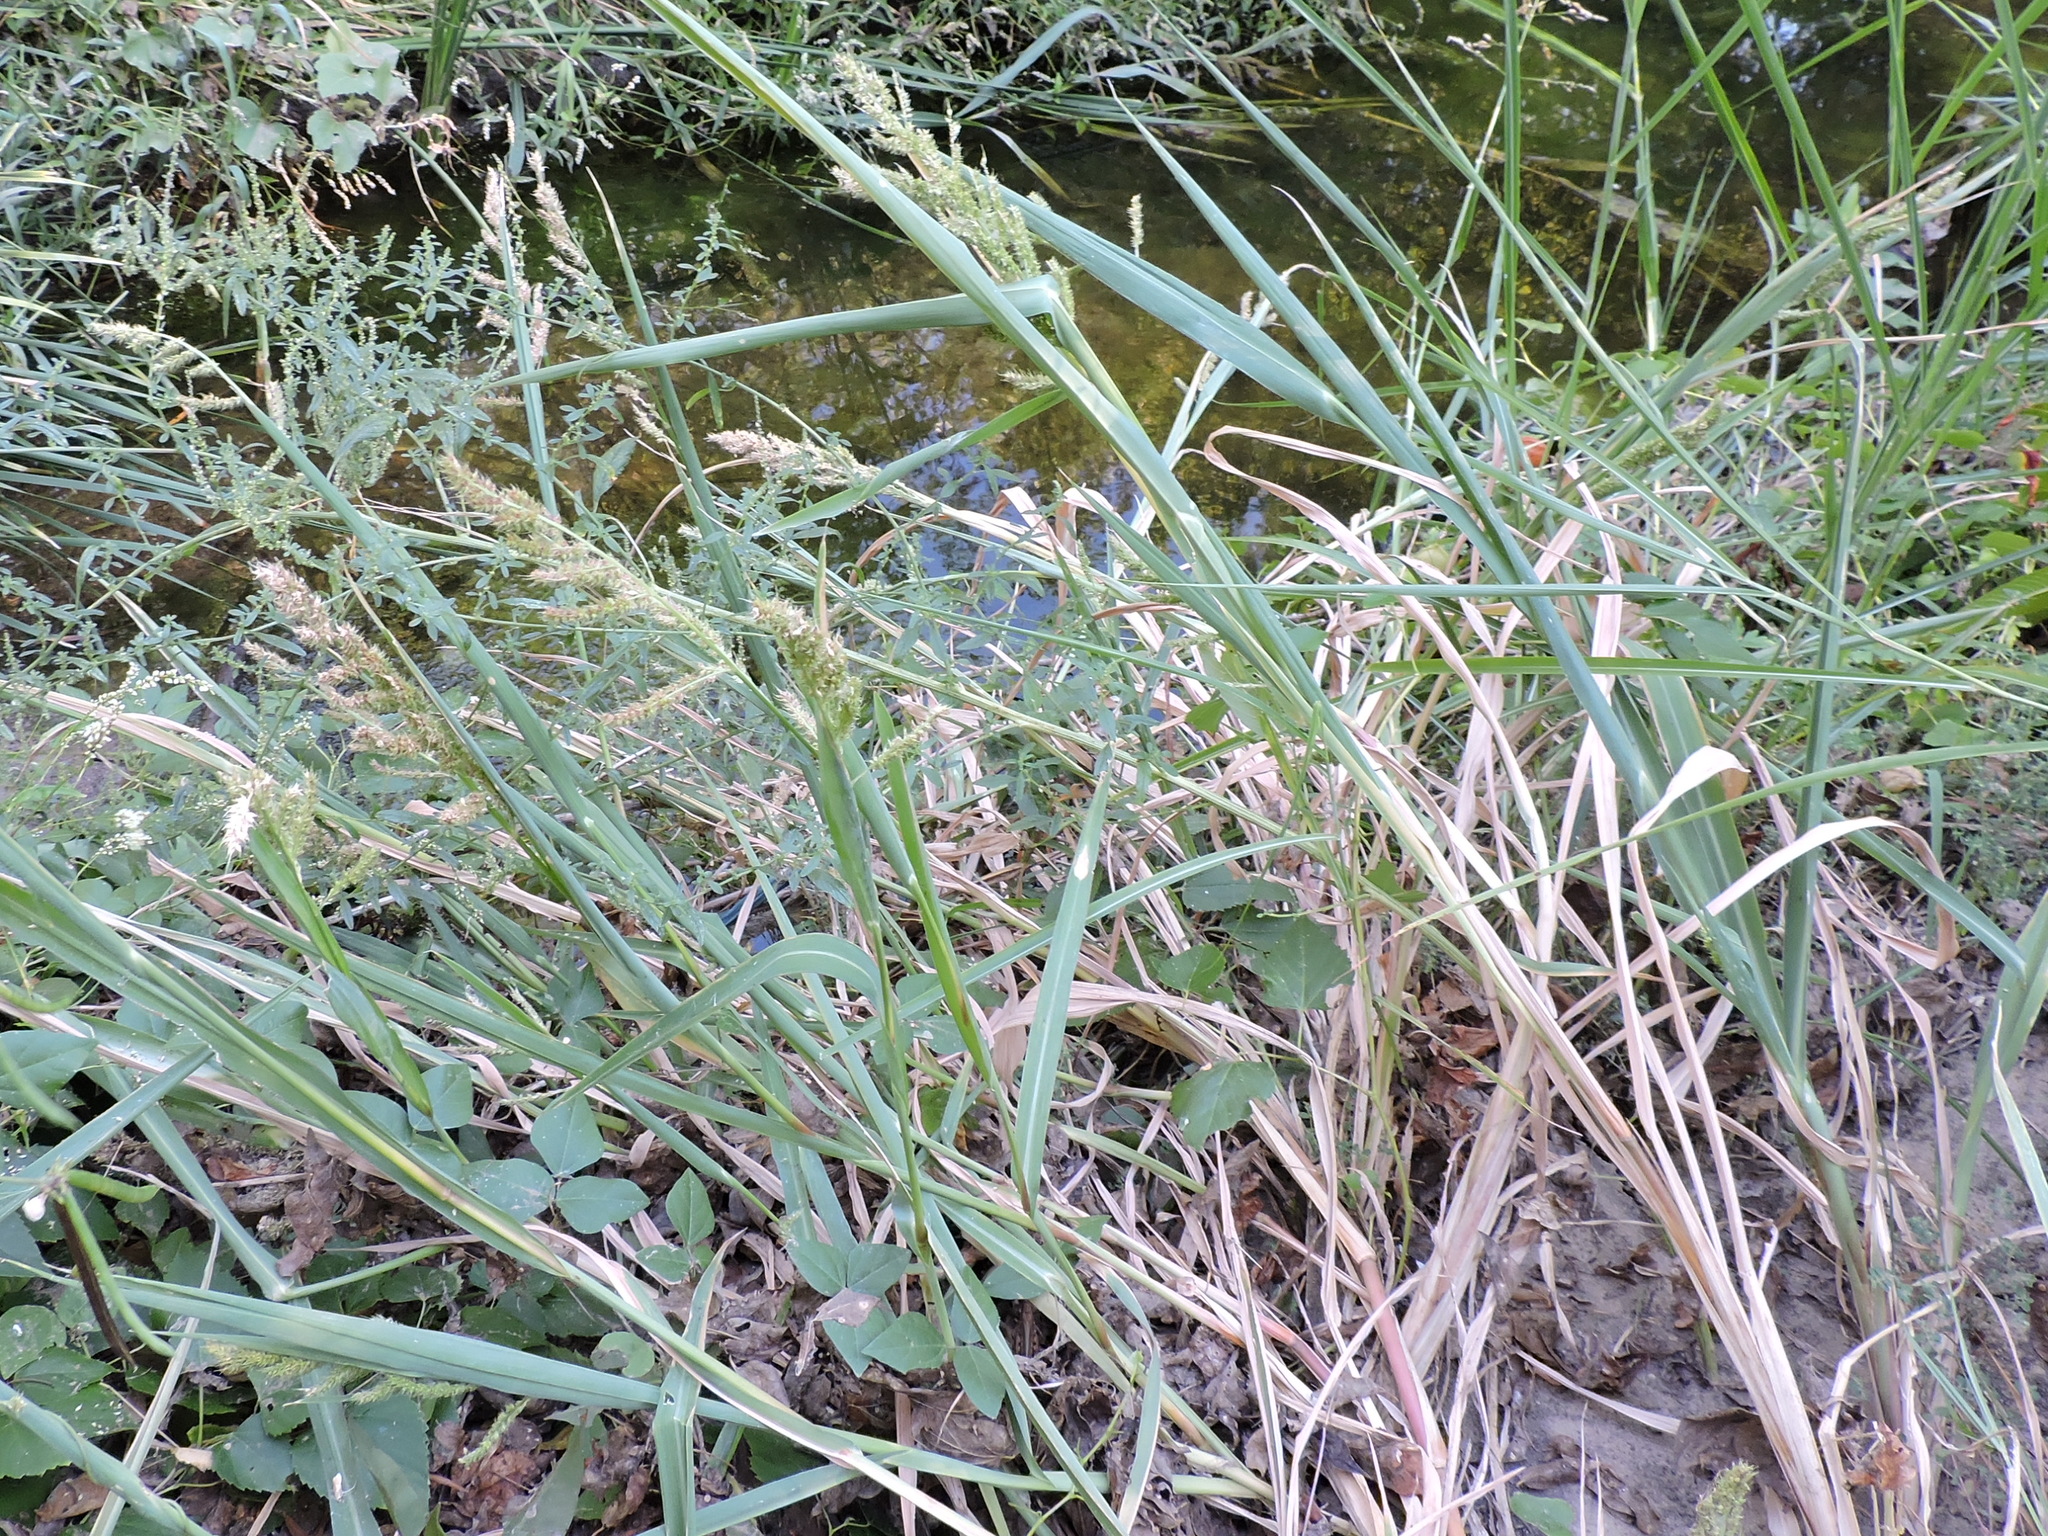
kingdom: Plantae
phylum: Tracheophyta
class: Liliopsida
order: Poales
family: Poaceae
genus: Echinochloa
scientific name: Echinochloa crus-galli
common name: Cockspur
